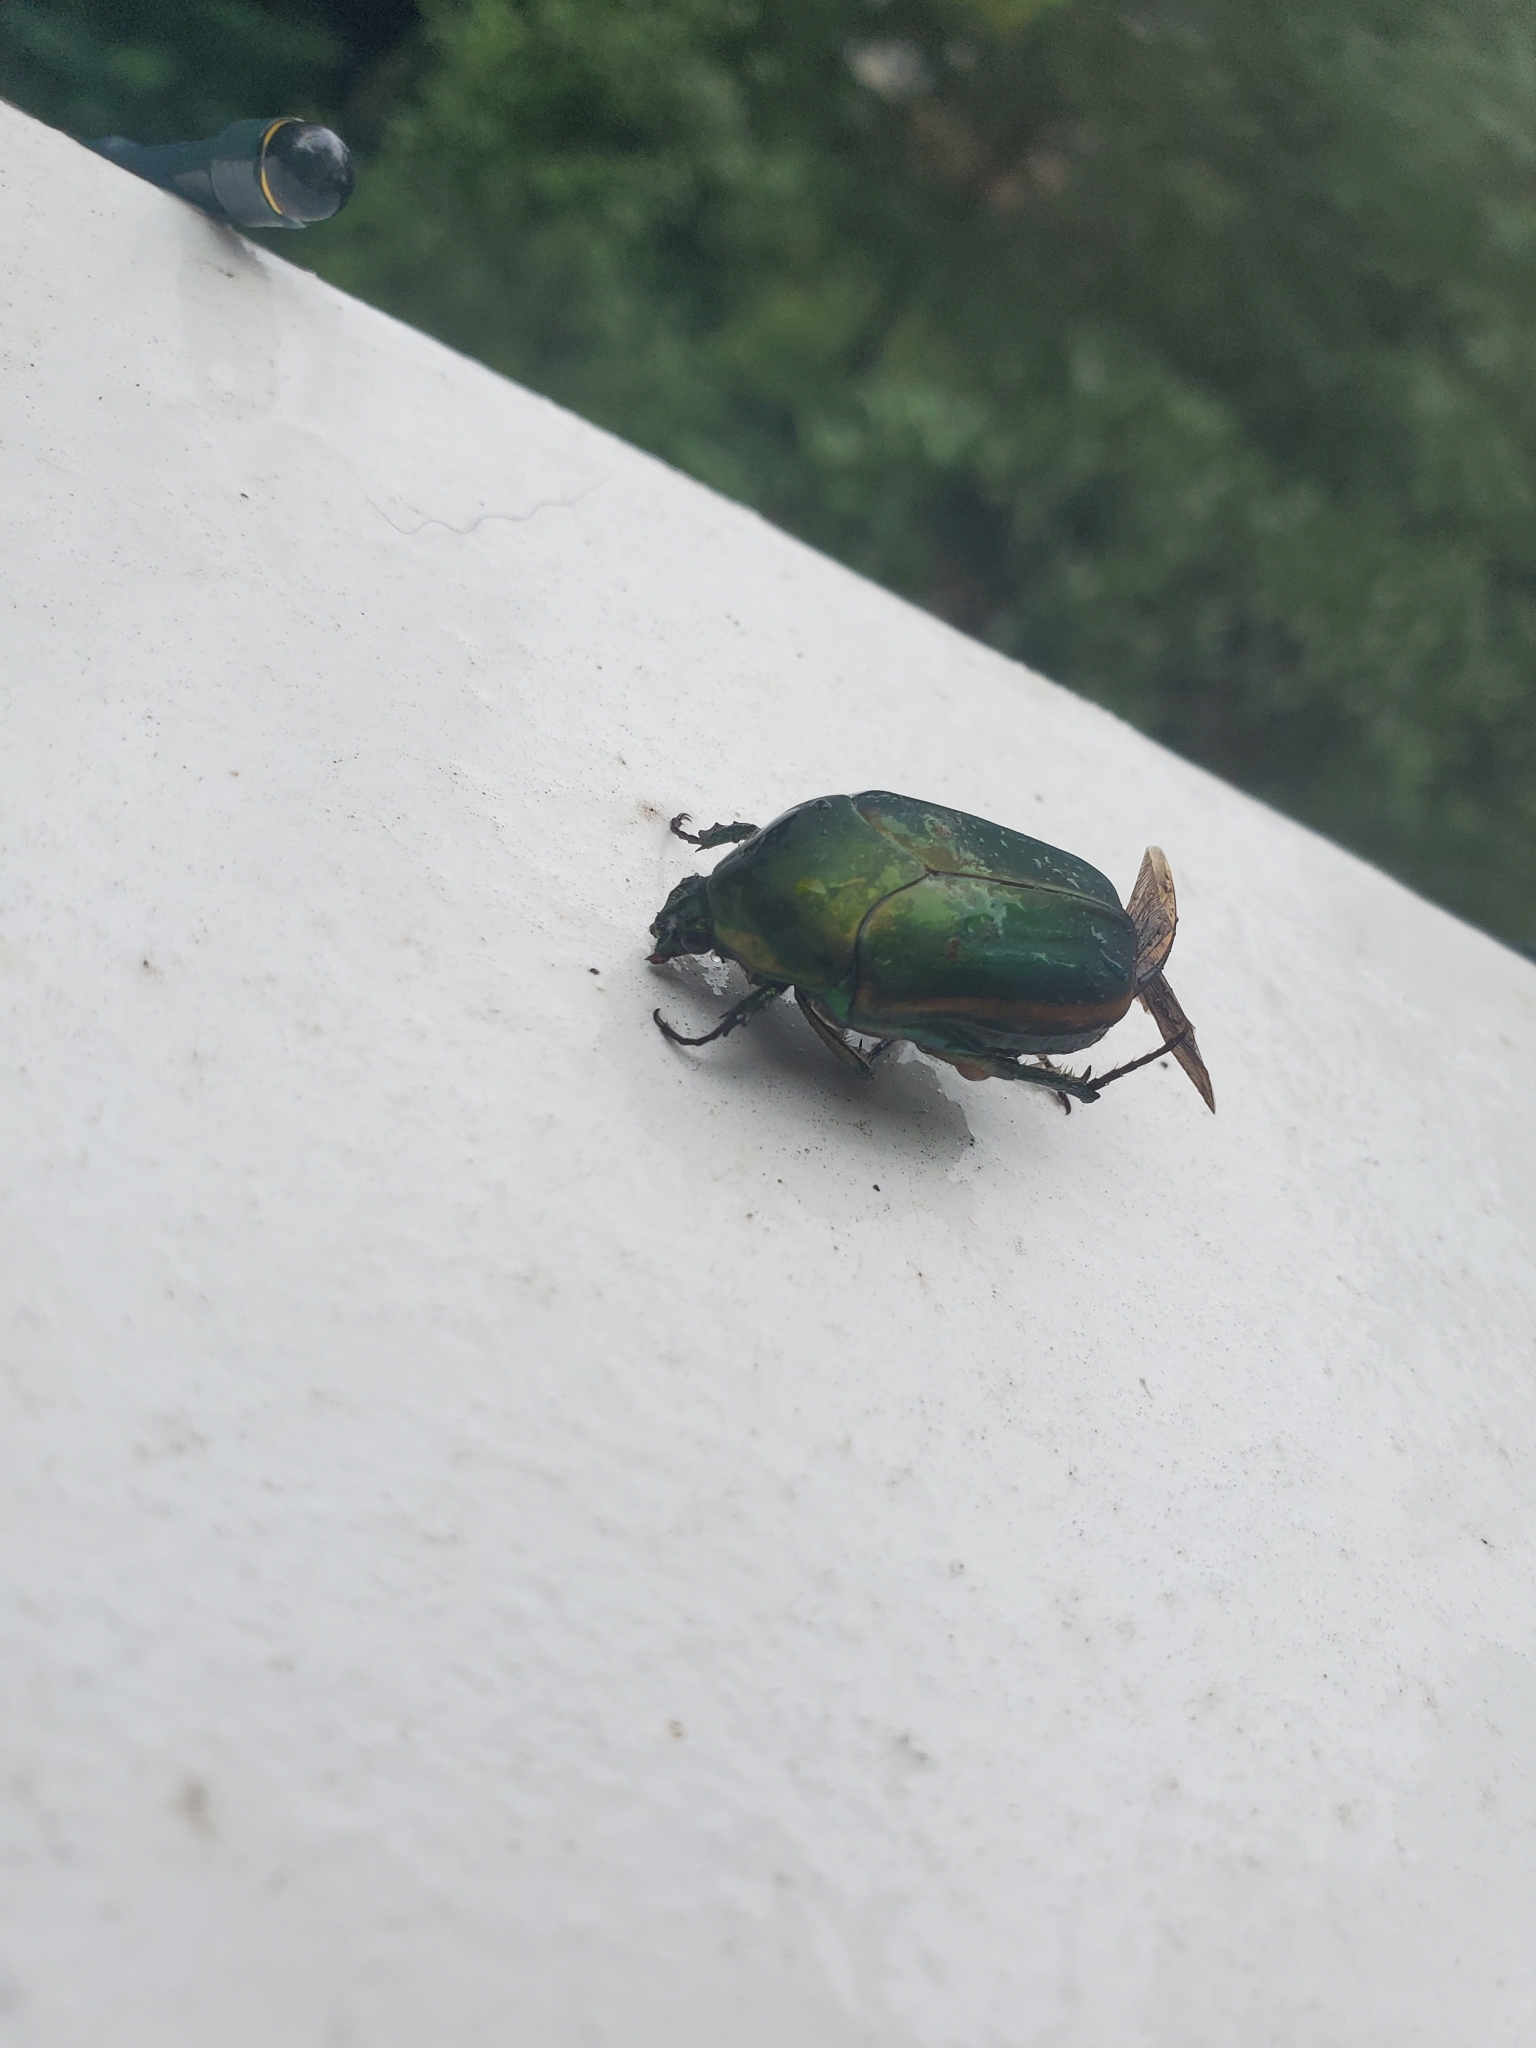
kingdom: Animalia
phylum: Arthropoda
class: Insecta
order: Coleoptera
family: Scarabaeidae
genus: Cotinis
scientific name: Cotinis nitida
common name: Common green june beetle
